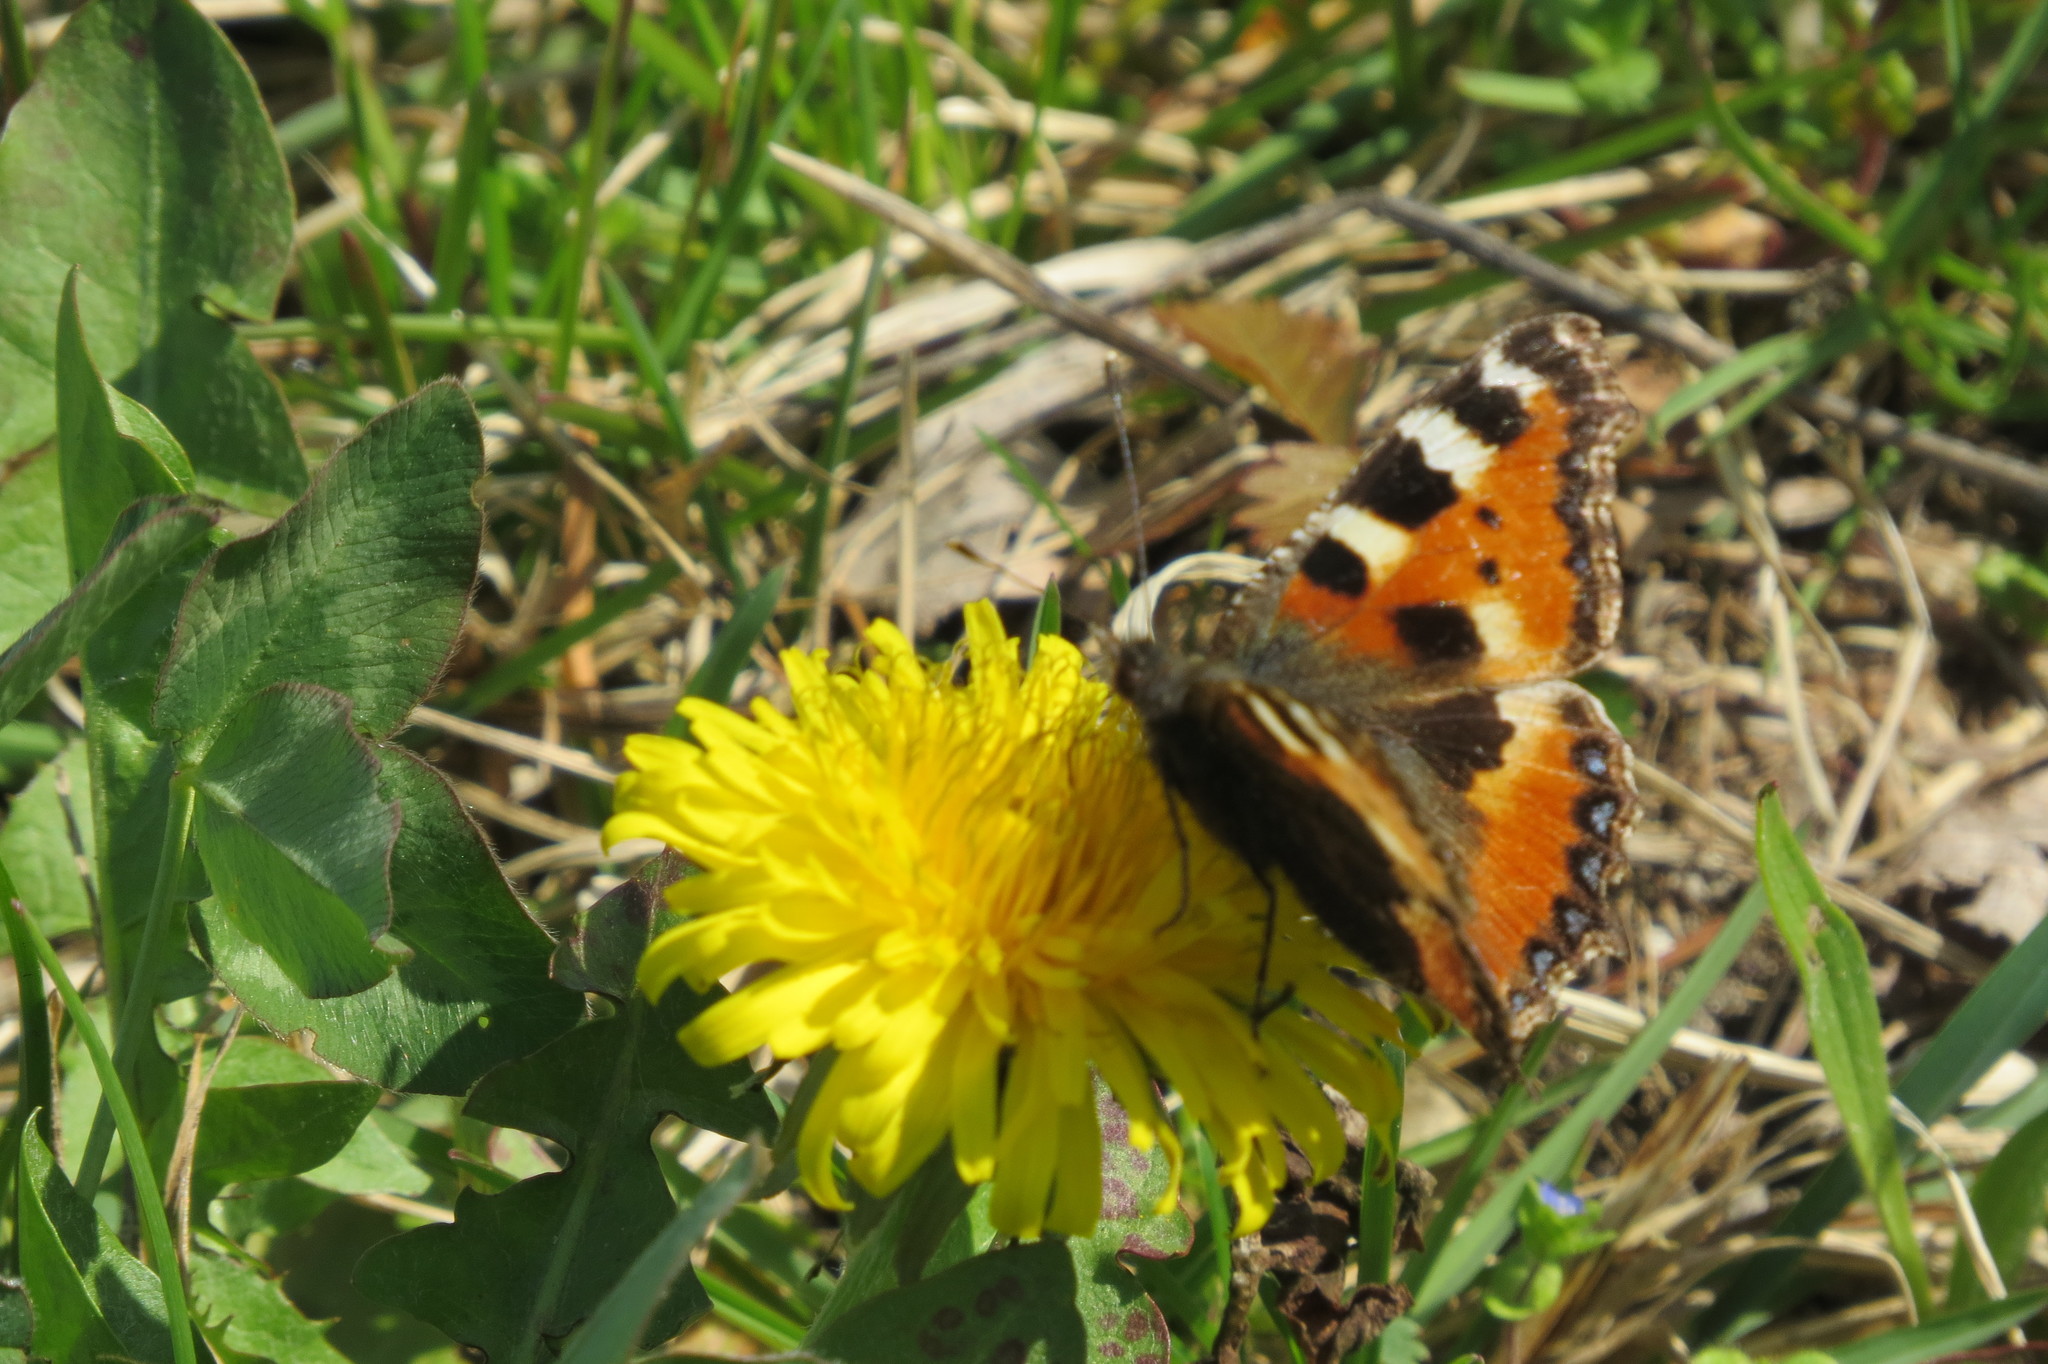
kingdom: Animalia
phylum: Arthropoda
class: Insecta
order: Lepidoptera
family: Nymphalidae
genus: Aglais
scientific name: Aglais urticae
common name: Small tortoiseshell
